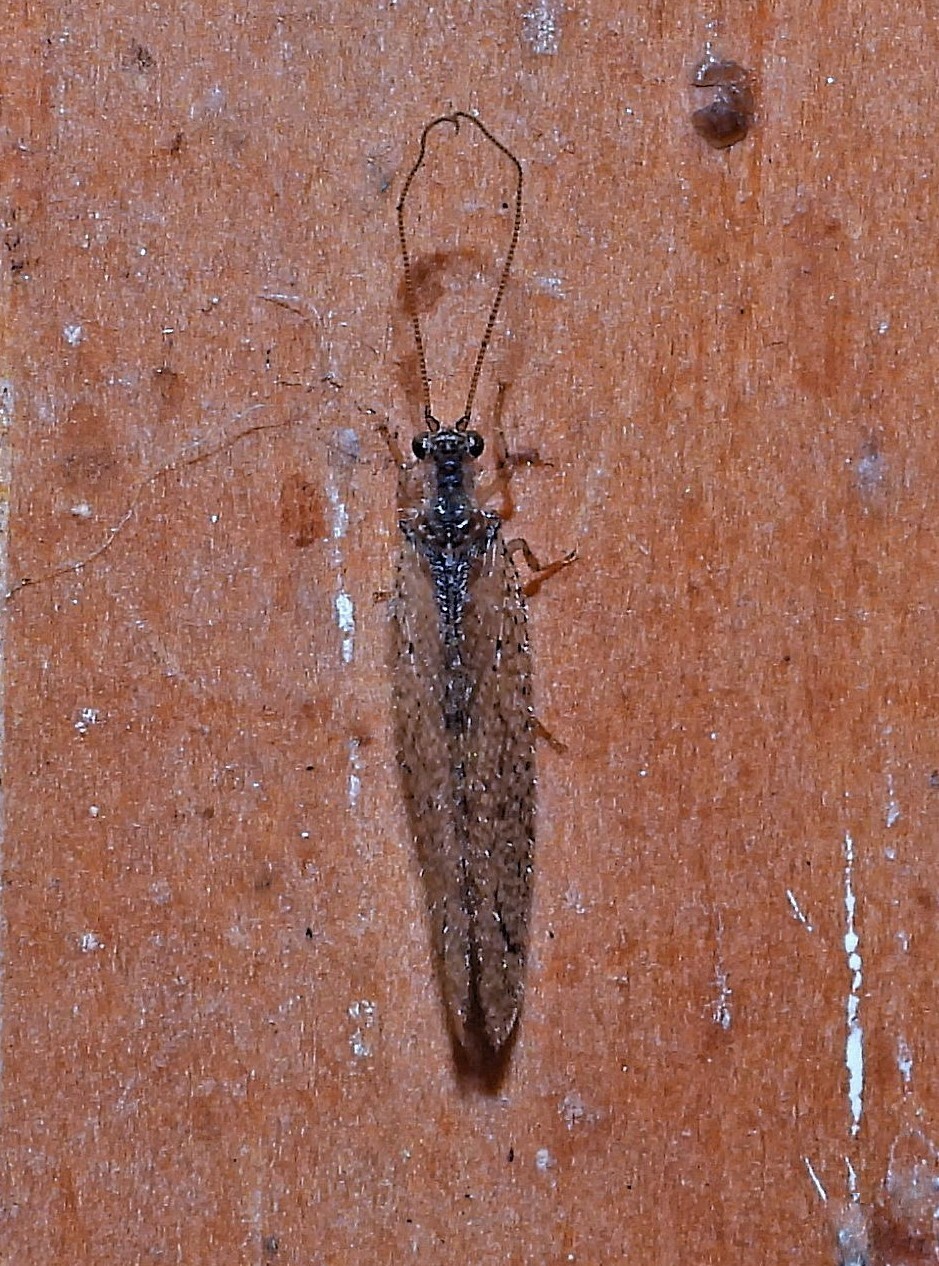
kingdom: Animalia
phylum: Arthropoda
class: Insecta
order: Neuroptera
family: Hemerobiidae
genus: Nusalala
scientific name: Nusalala tessellata
